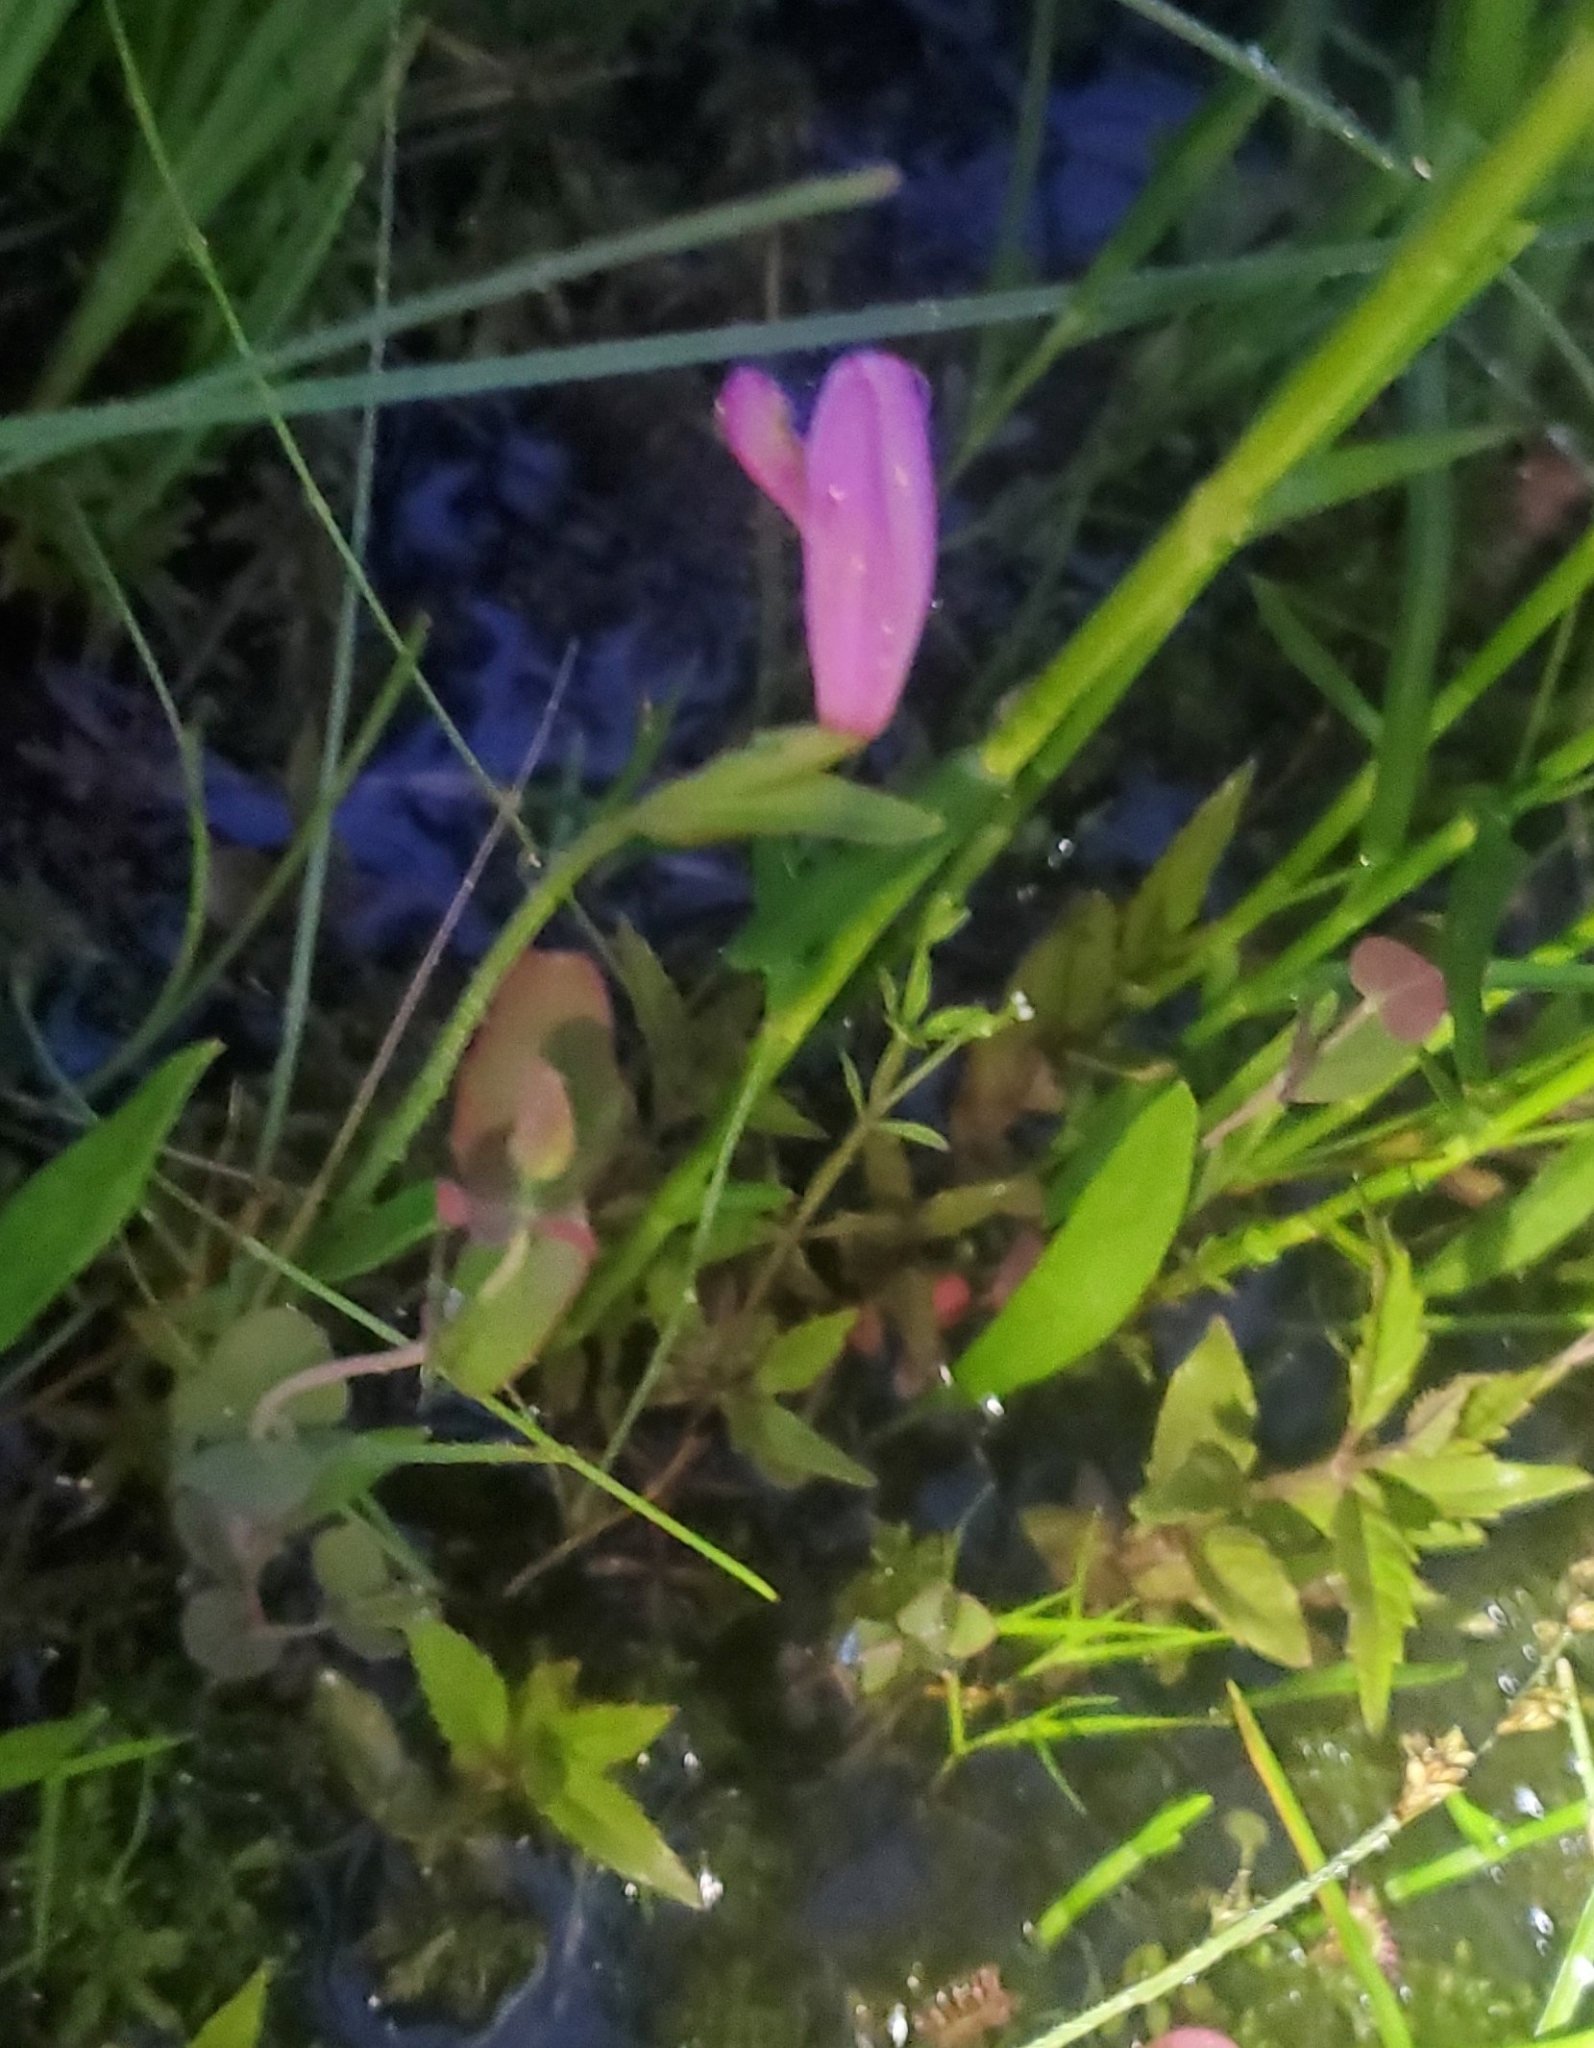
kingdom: Plantae
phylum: Tracheophyta
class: Liliopsida
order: Asparagales
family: Orchidaceae
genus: Pogonia
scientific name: Pogonia ophioglossoides
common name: Rose pogonia
